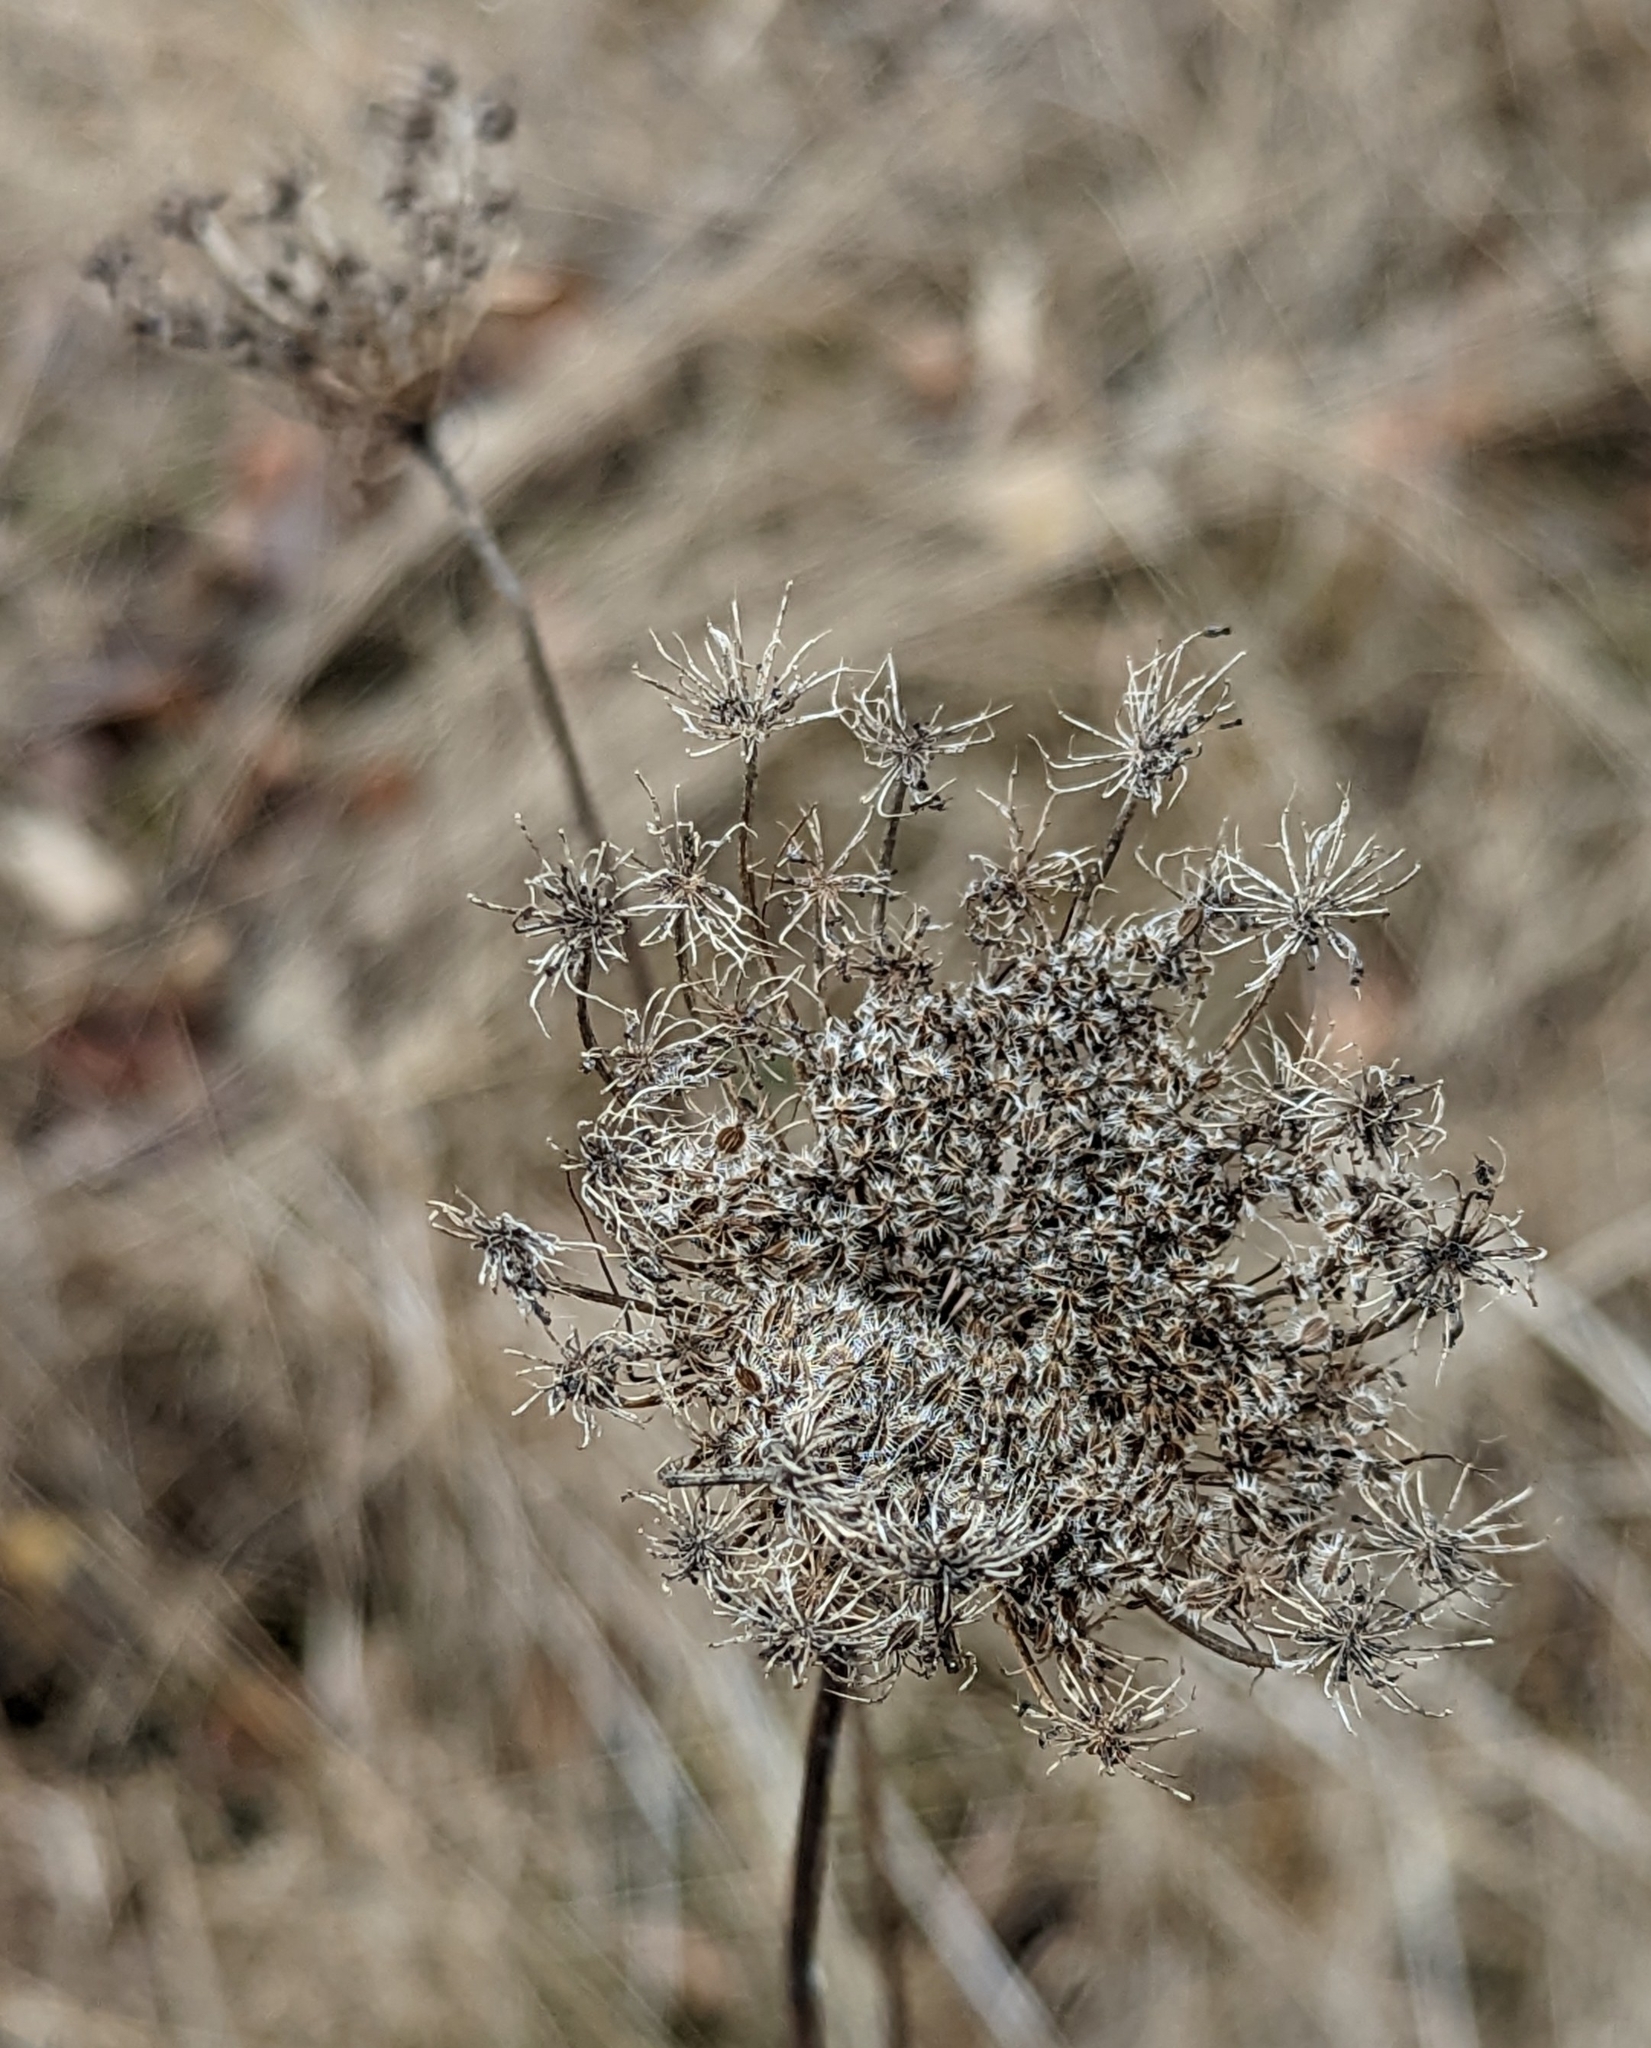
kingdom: Plantae
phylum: Tracheophyta
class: Magnoliopsida
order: Apiales
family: Apiaceae
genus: Daucus
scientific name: Daucus carota
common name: Wild carrot
